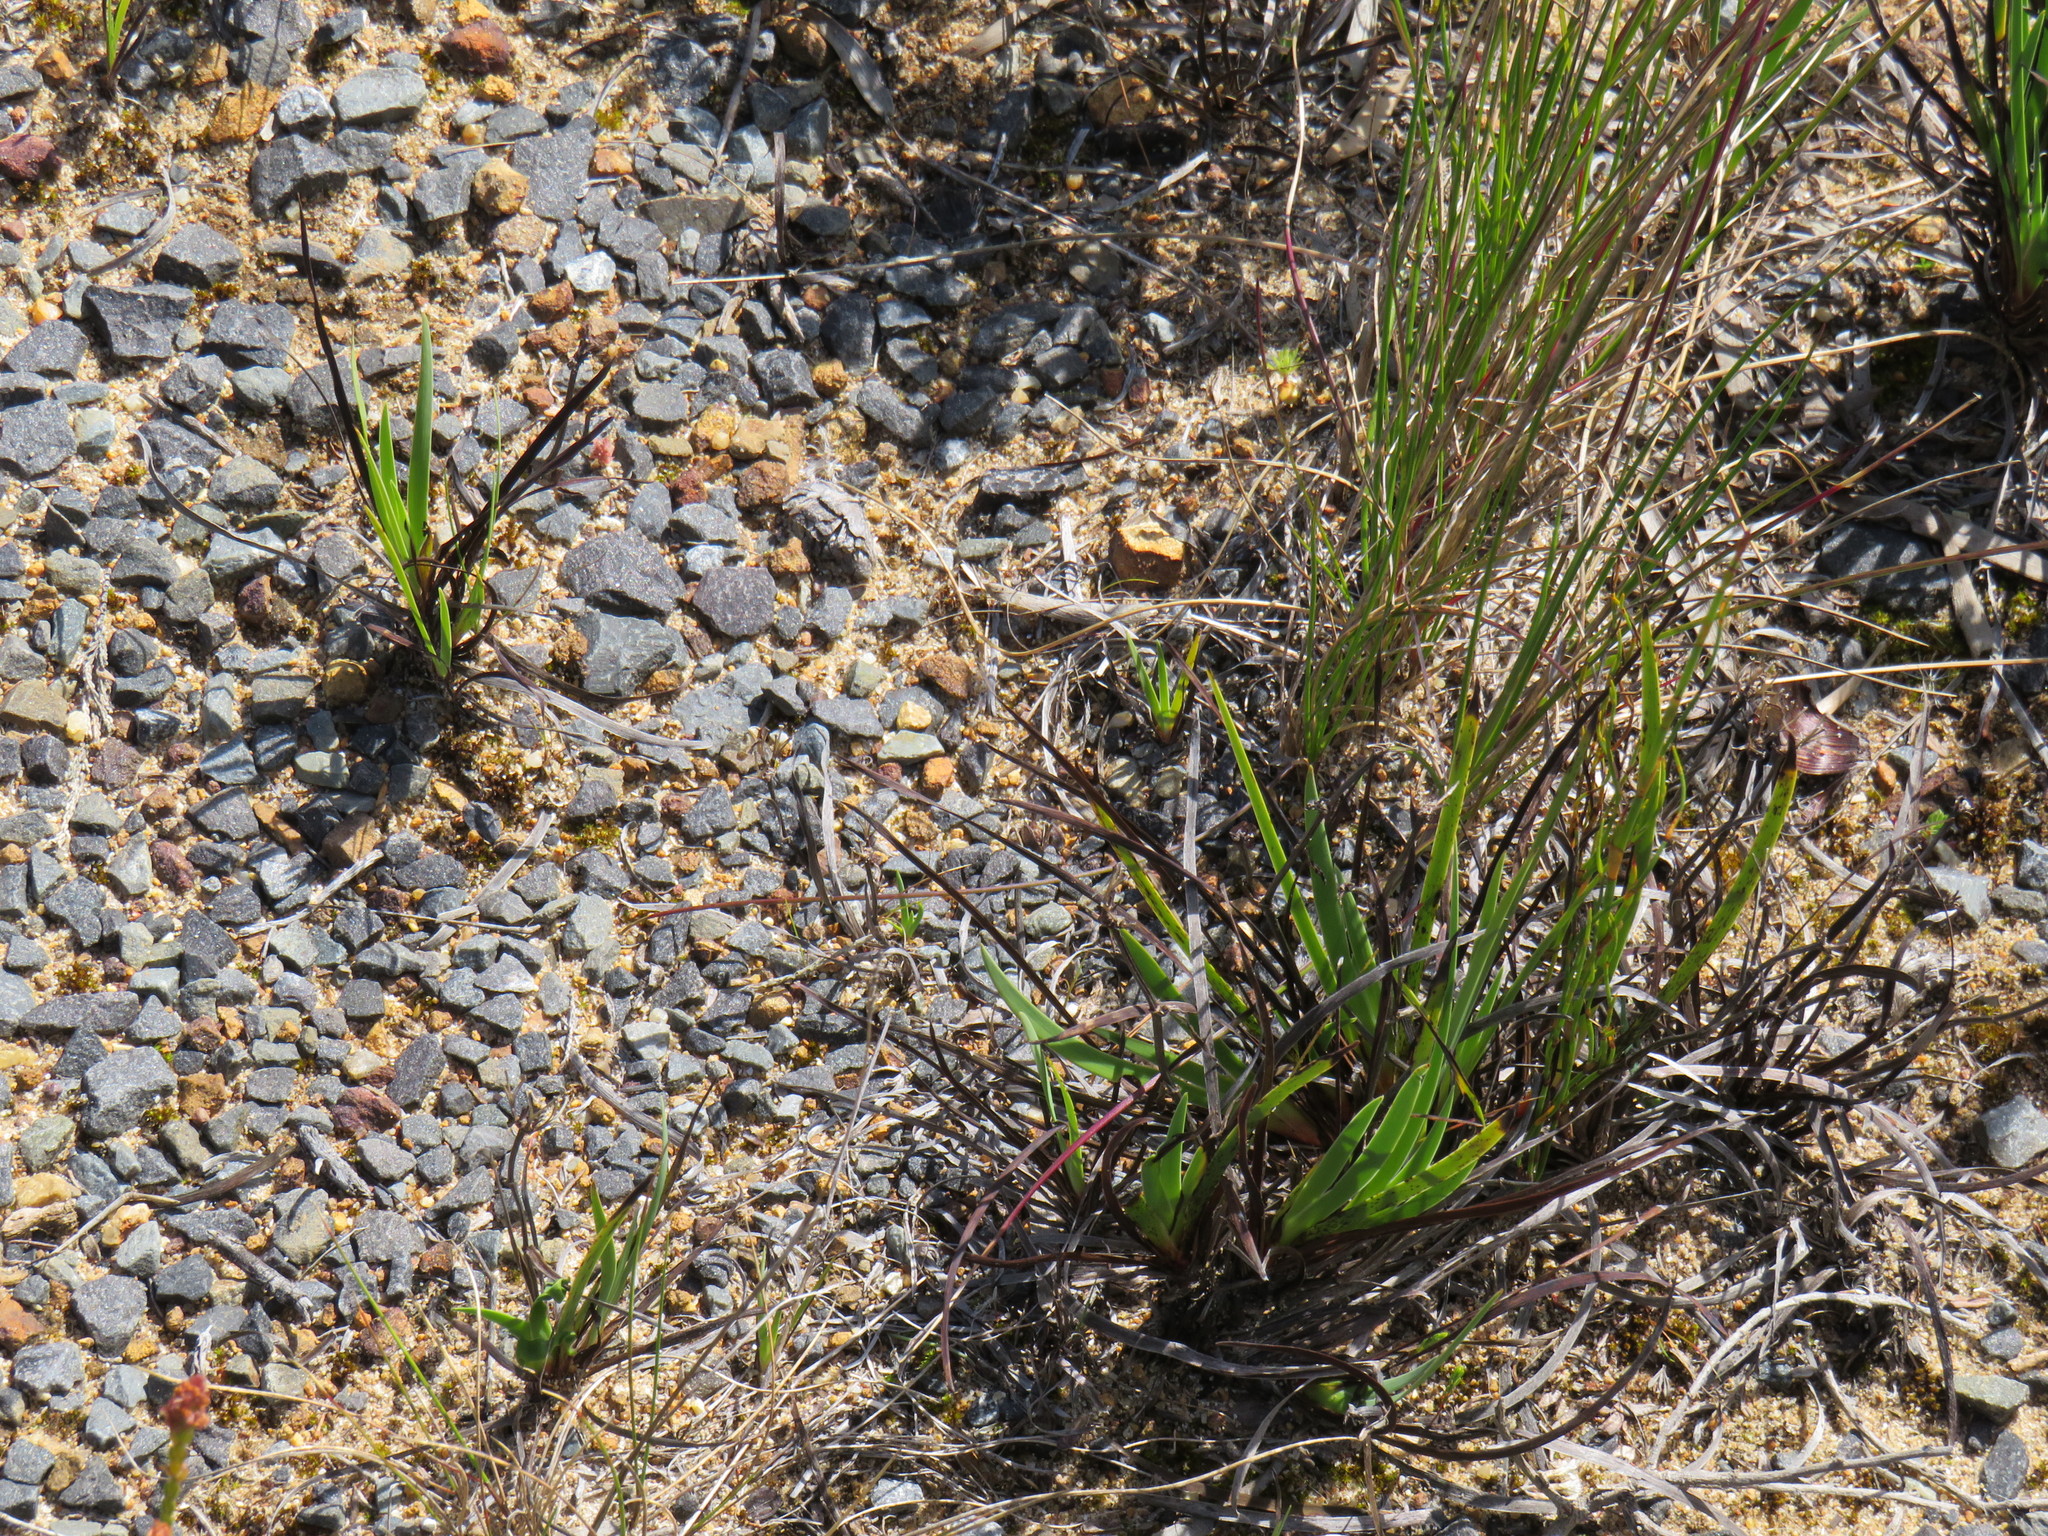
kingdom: Plantae
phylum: Tracheophyta
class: Liliopsida
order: Asparagales
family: Iridaceae
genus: Aristea
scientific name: Aristea africana
